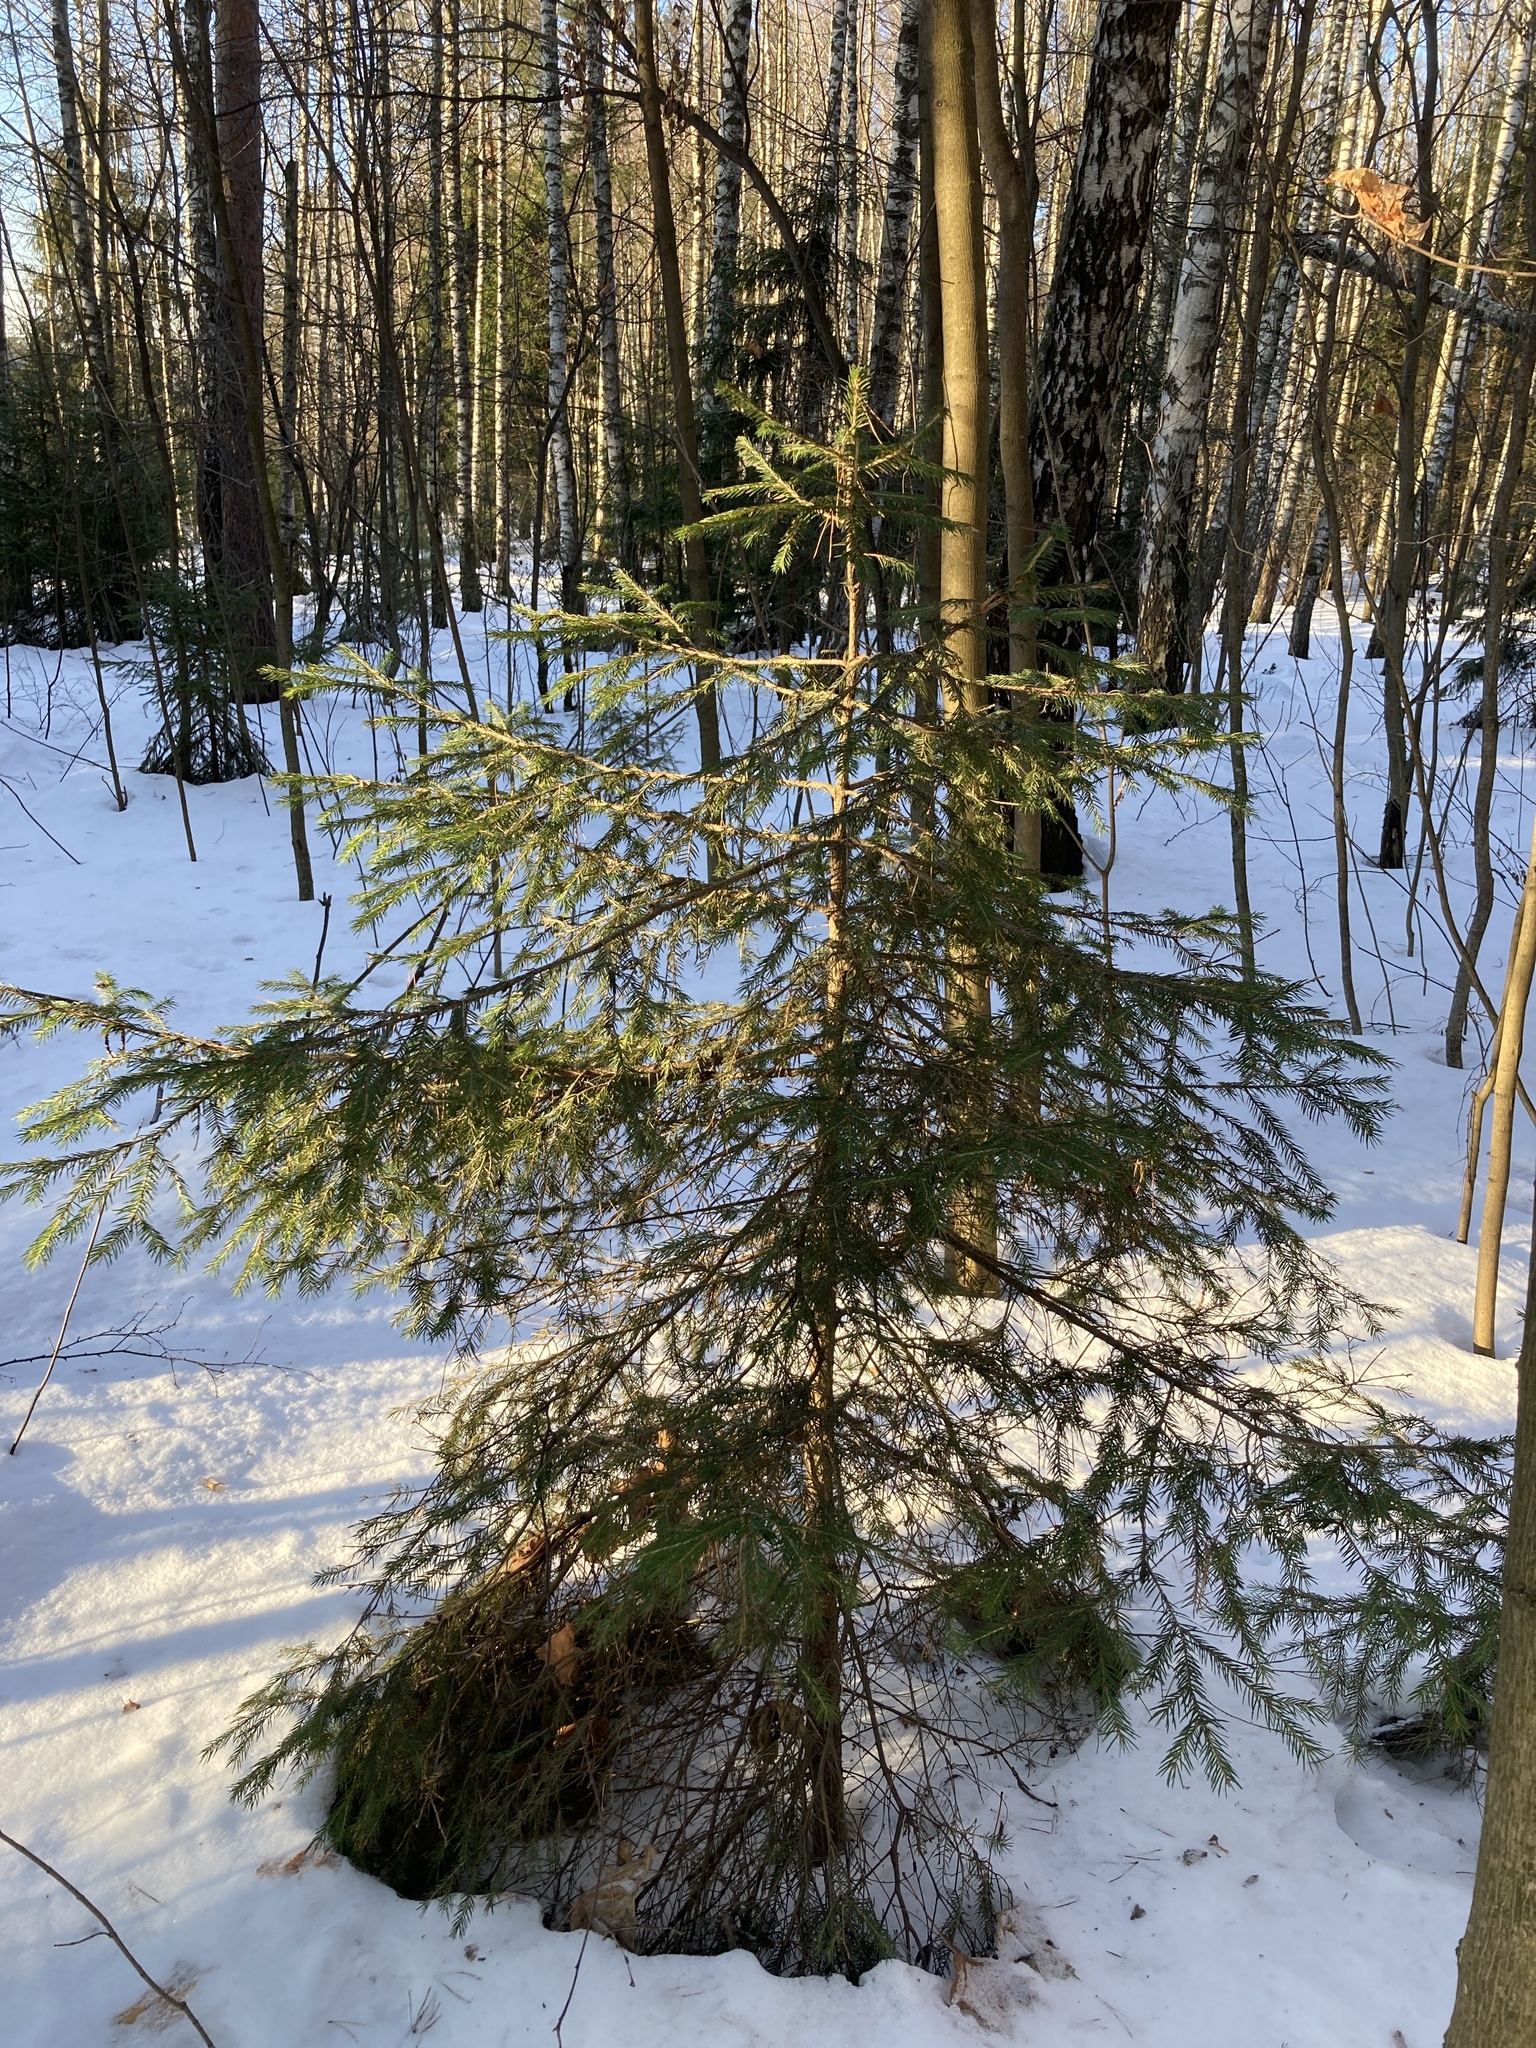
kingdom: Plantae
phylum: Tracheophyta
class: Pinopsida
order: Pinales
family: Pinaceae
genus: Picea
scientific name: Picea abies
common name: Norway spruce
